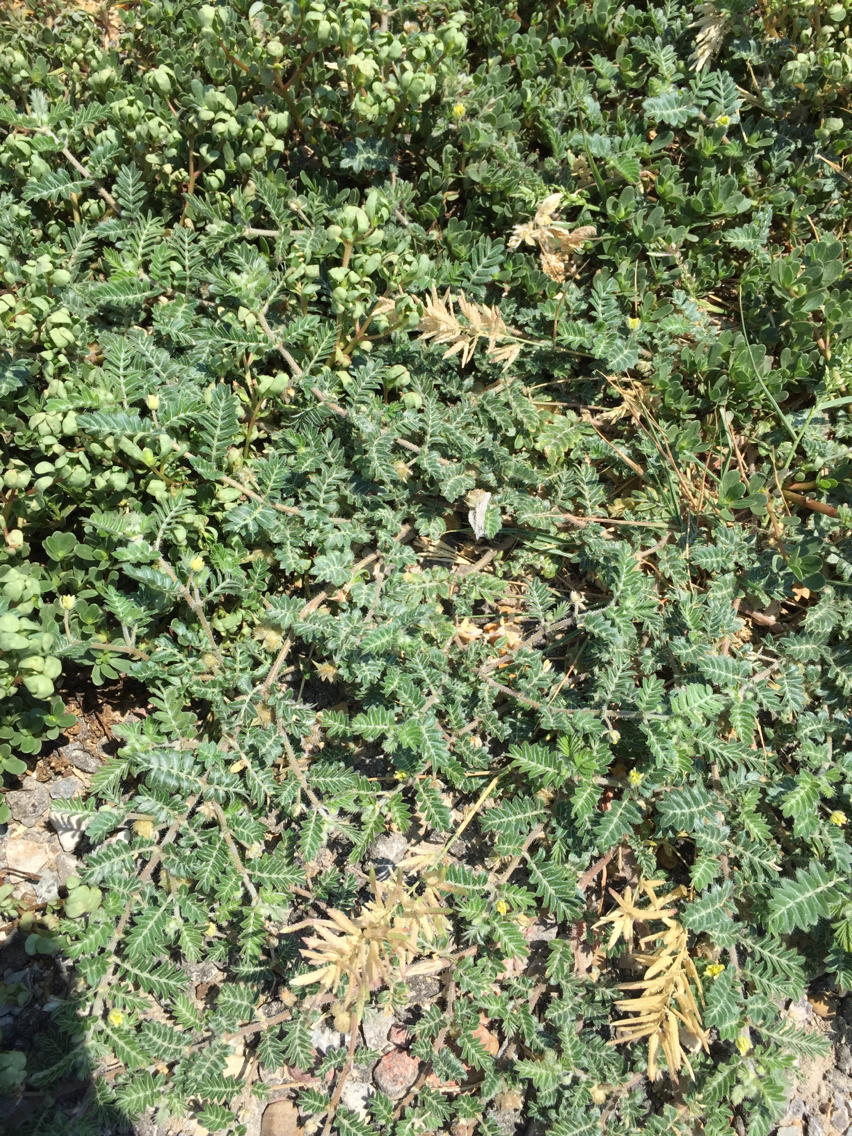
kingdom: Plantae
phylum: Tracheophyta
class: Magnoliopsida
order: Zygophyllales
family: Zygophyllaceae
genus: Tribulus
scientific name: Tribulus terrestris
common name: Puncturevine
